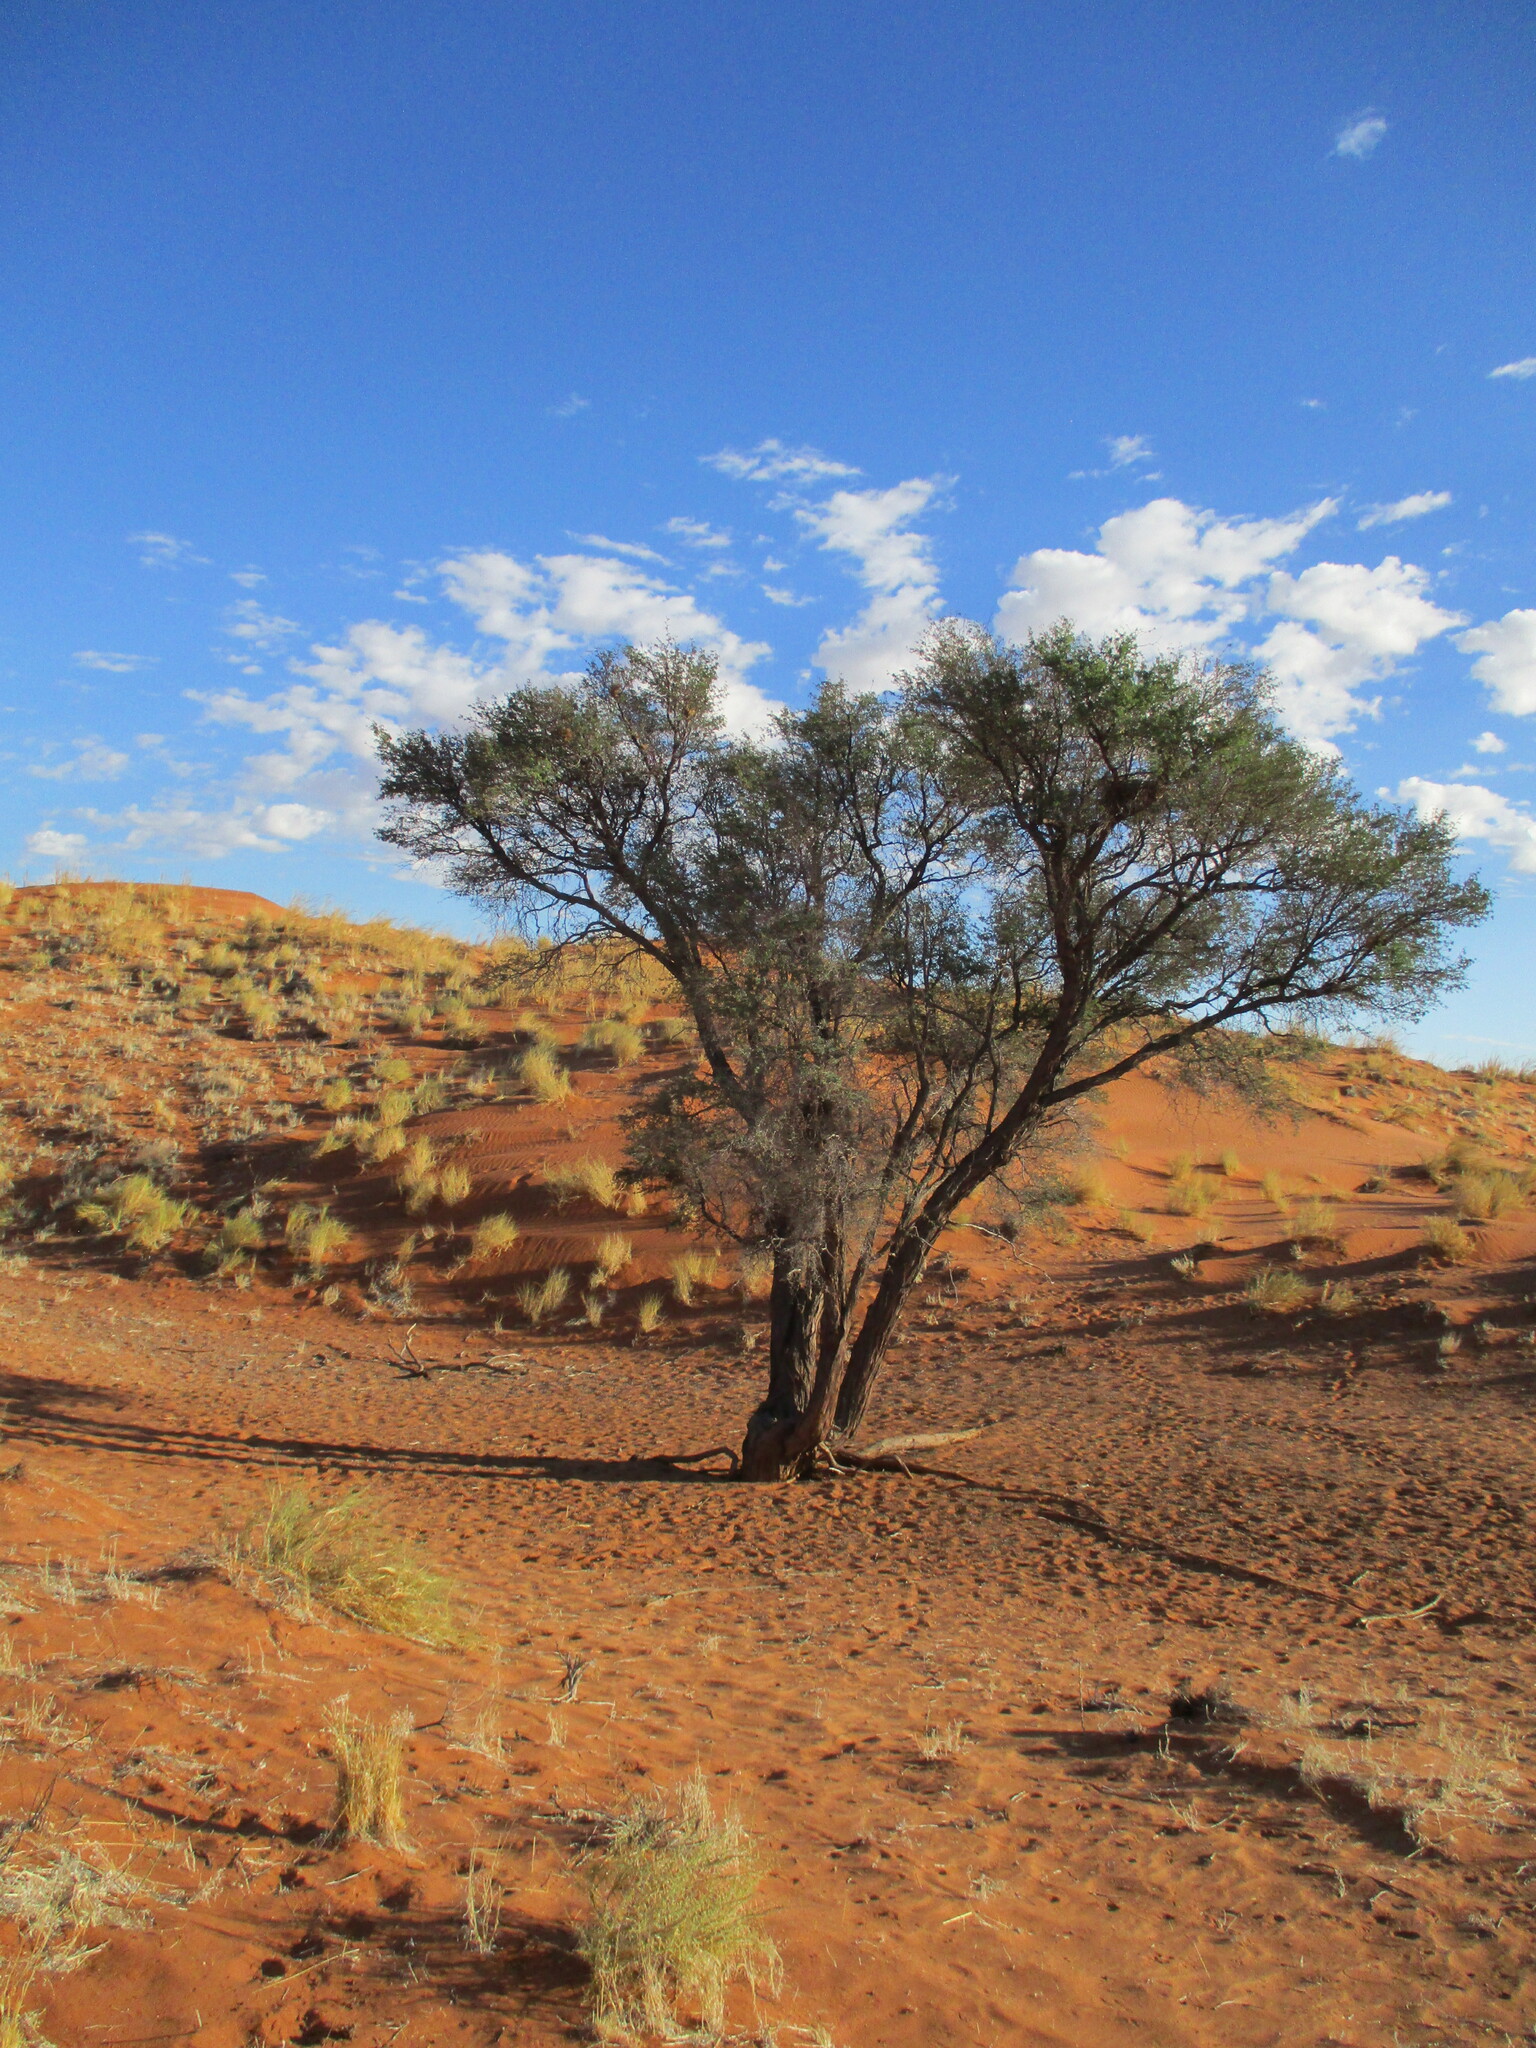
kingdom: Plantae
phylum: Tracheophyta
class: Magnoliopsida
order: Fabales
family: Fabaceae
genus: Vachellia
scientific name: Vachellia erioloba
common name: Camel thorn
